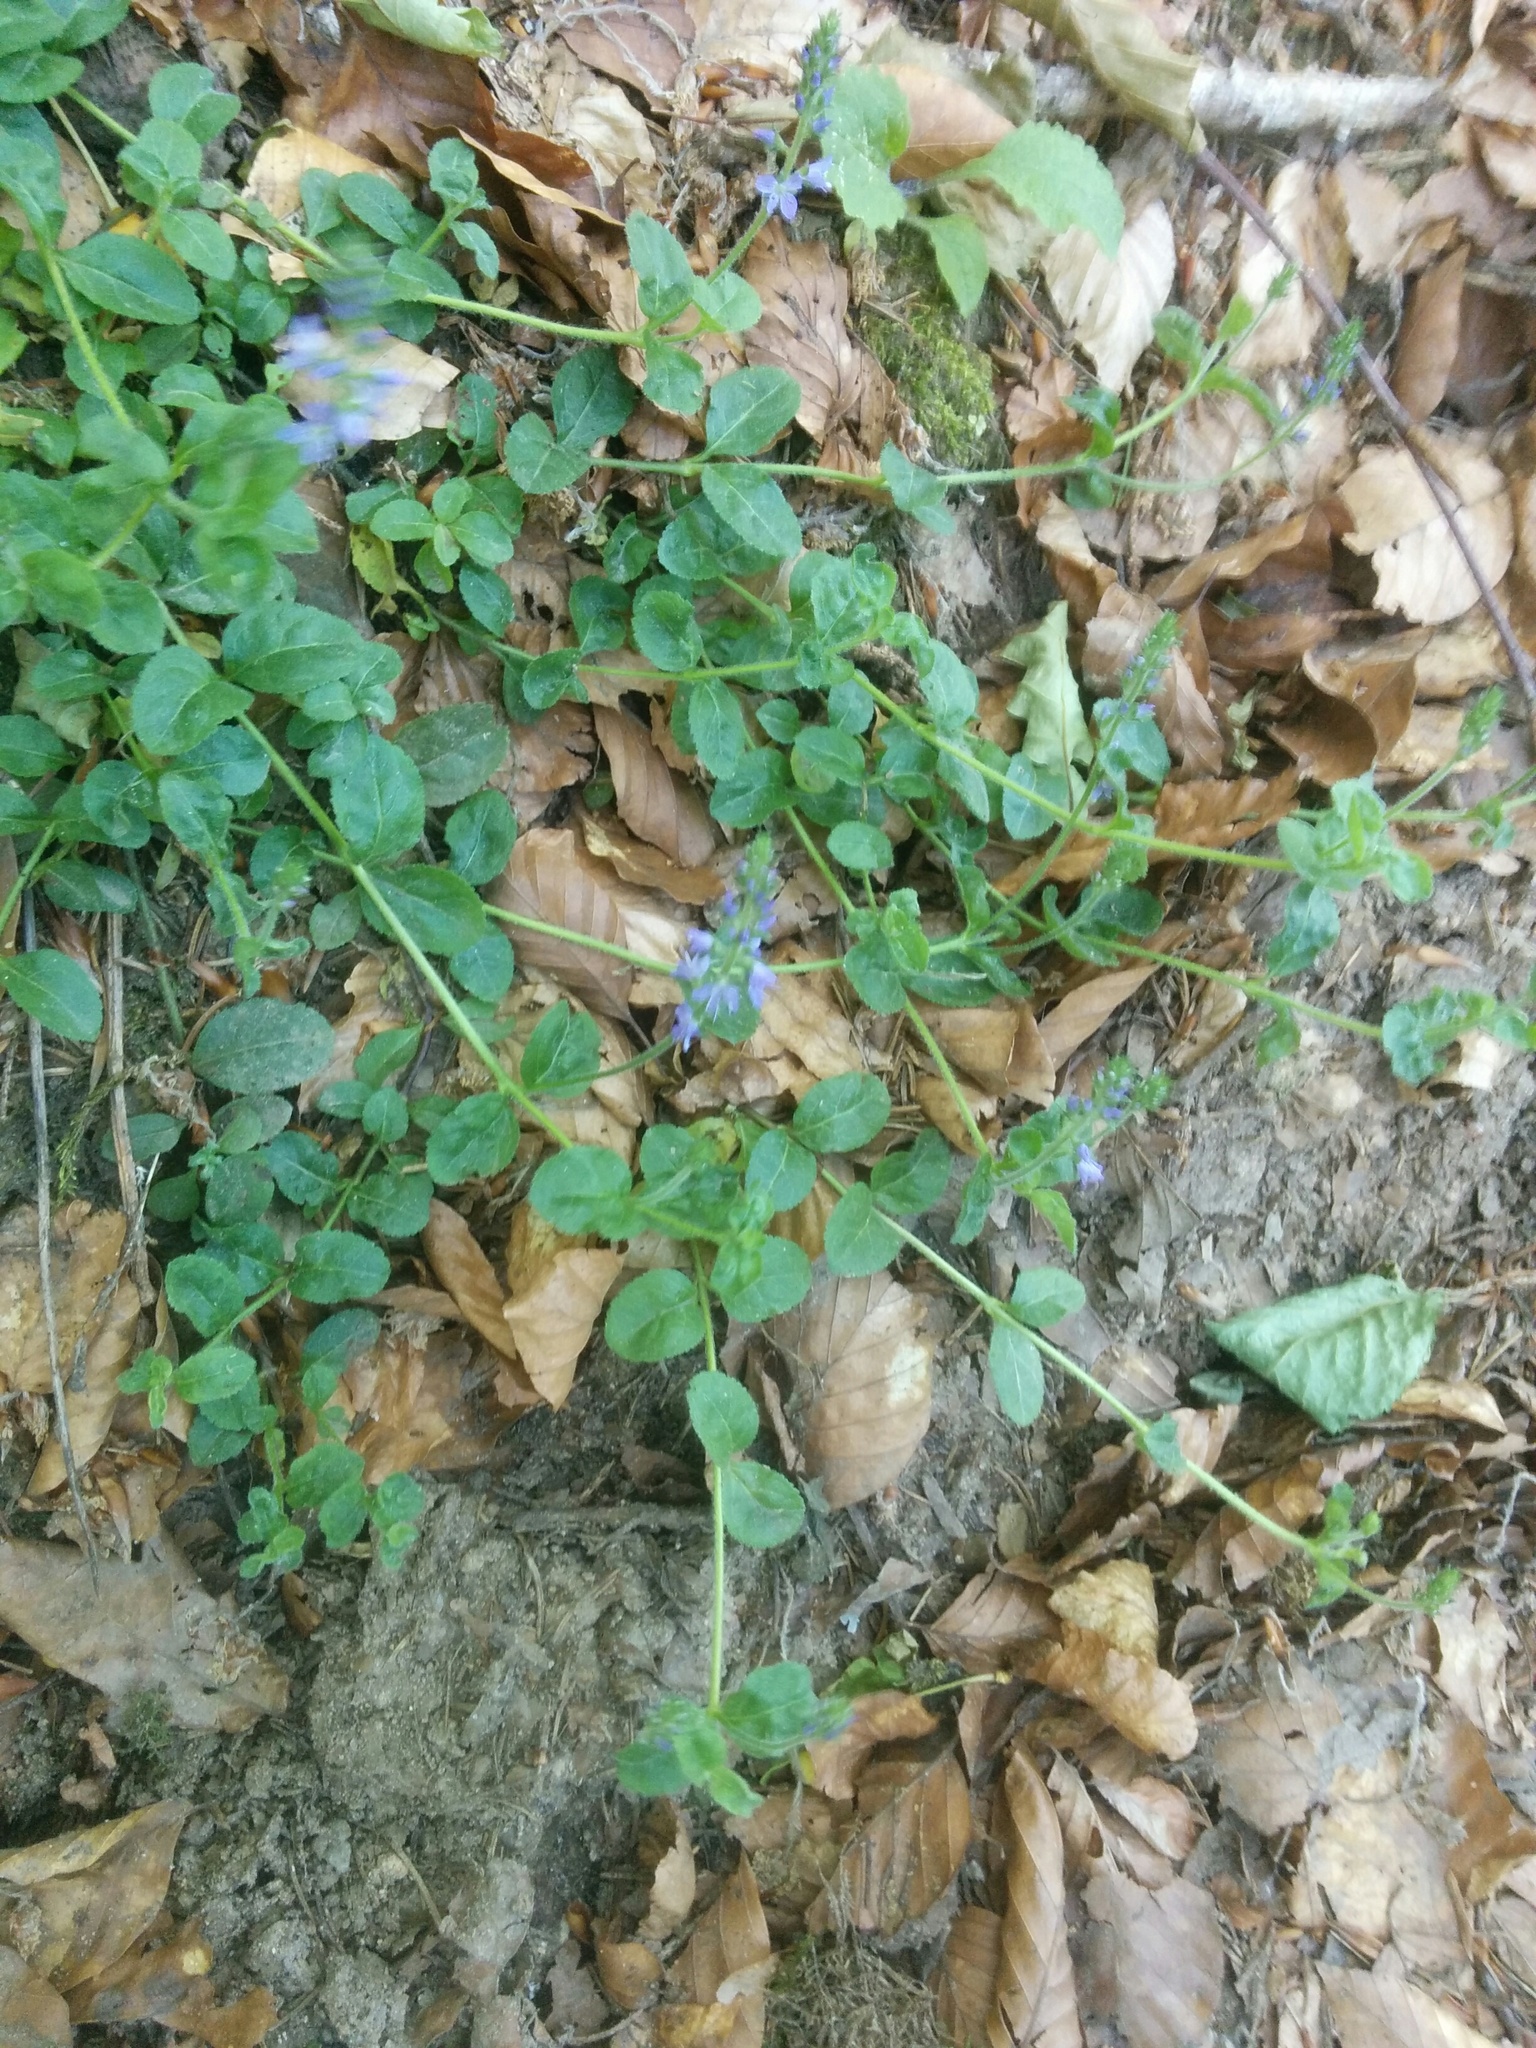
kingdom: Plantae
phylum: Tracheophyta
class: Magnoliopsida
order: Lamiales
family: Plantaginaceae
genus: Veronica
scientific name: Veronica officinalis
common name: Common speedwell
